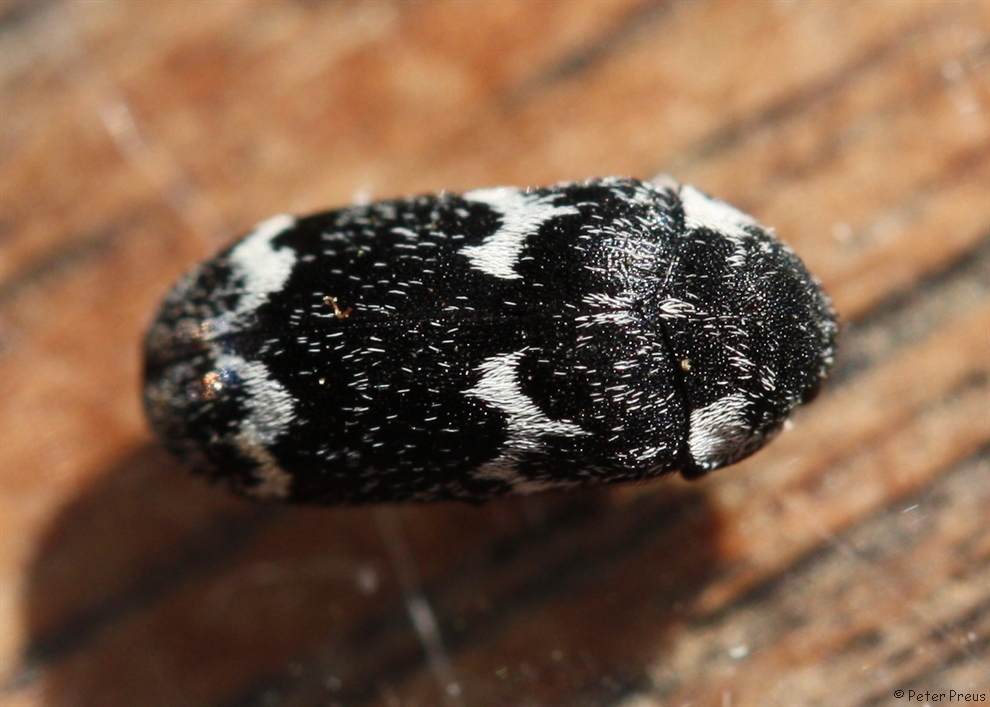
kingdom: Animalia
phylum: Arthropoda
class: Insecta
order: Coleoptera
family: Dermestidae
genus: Megatoma
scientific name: Megatoma undata
